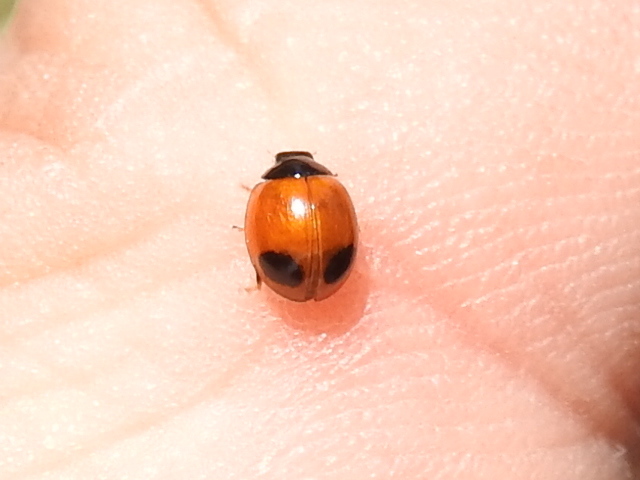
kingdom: Animalia
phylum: Arthropoda
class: Insecta
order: Coleoptera
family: Coccinellidae
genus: Exochomus
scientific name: Exochomus
